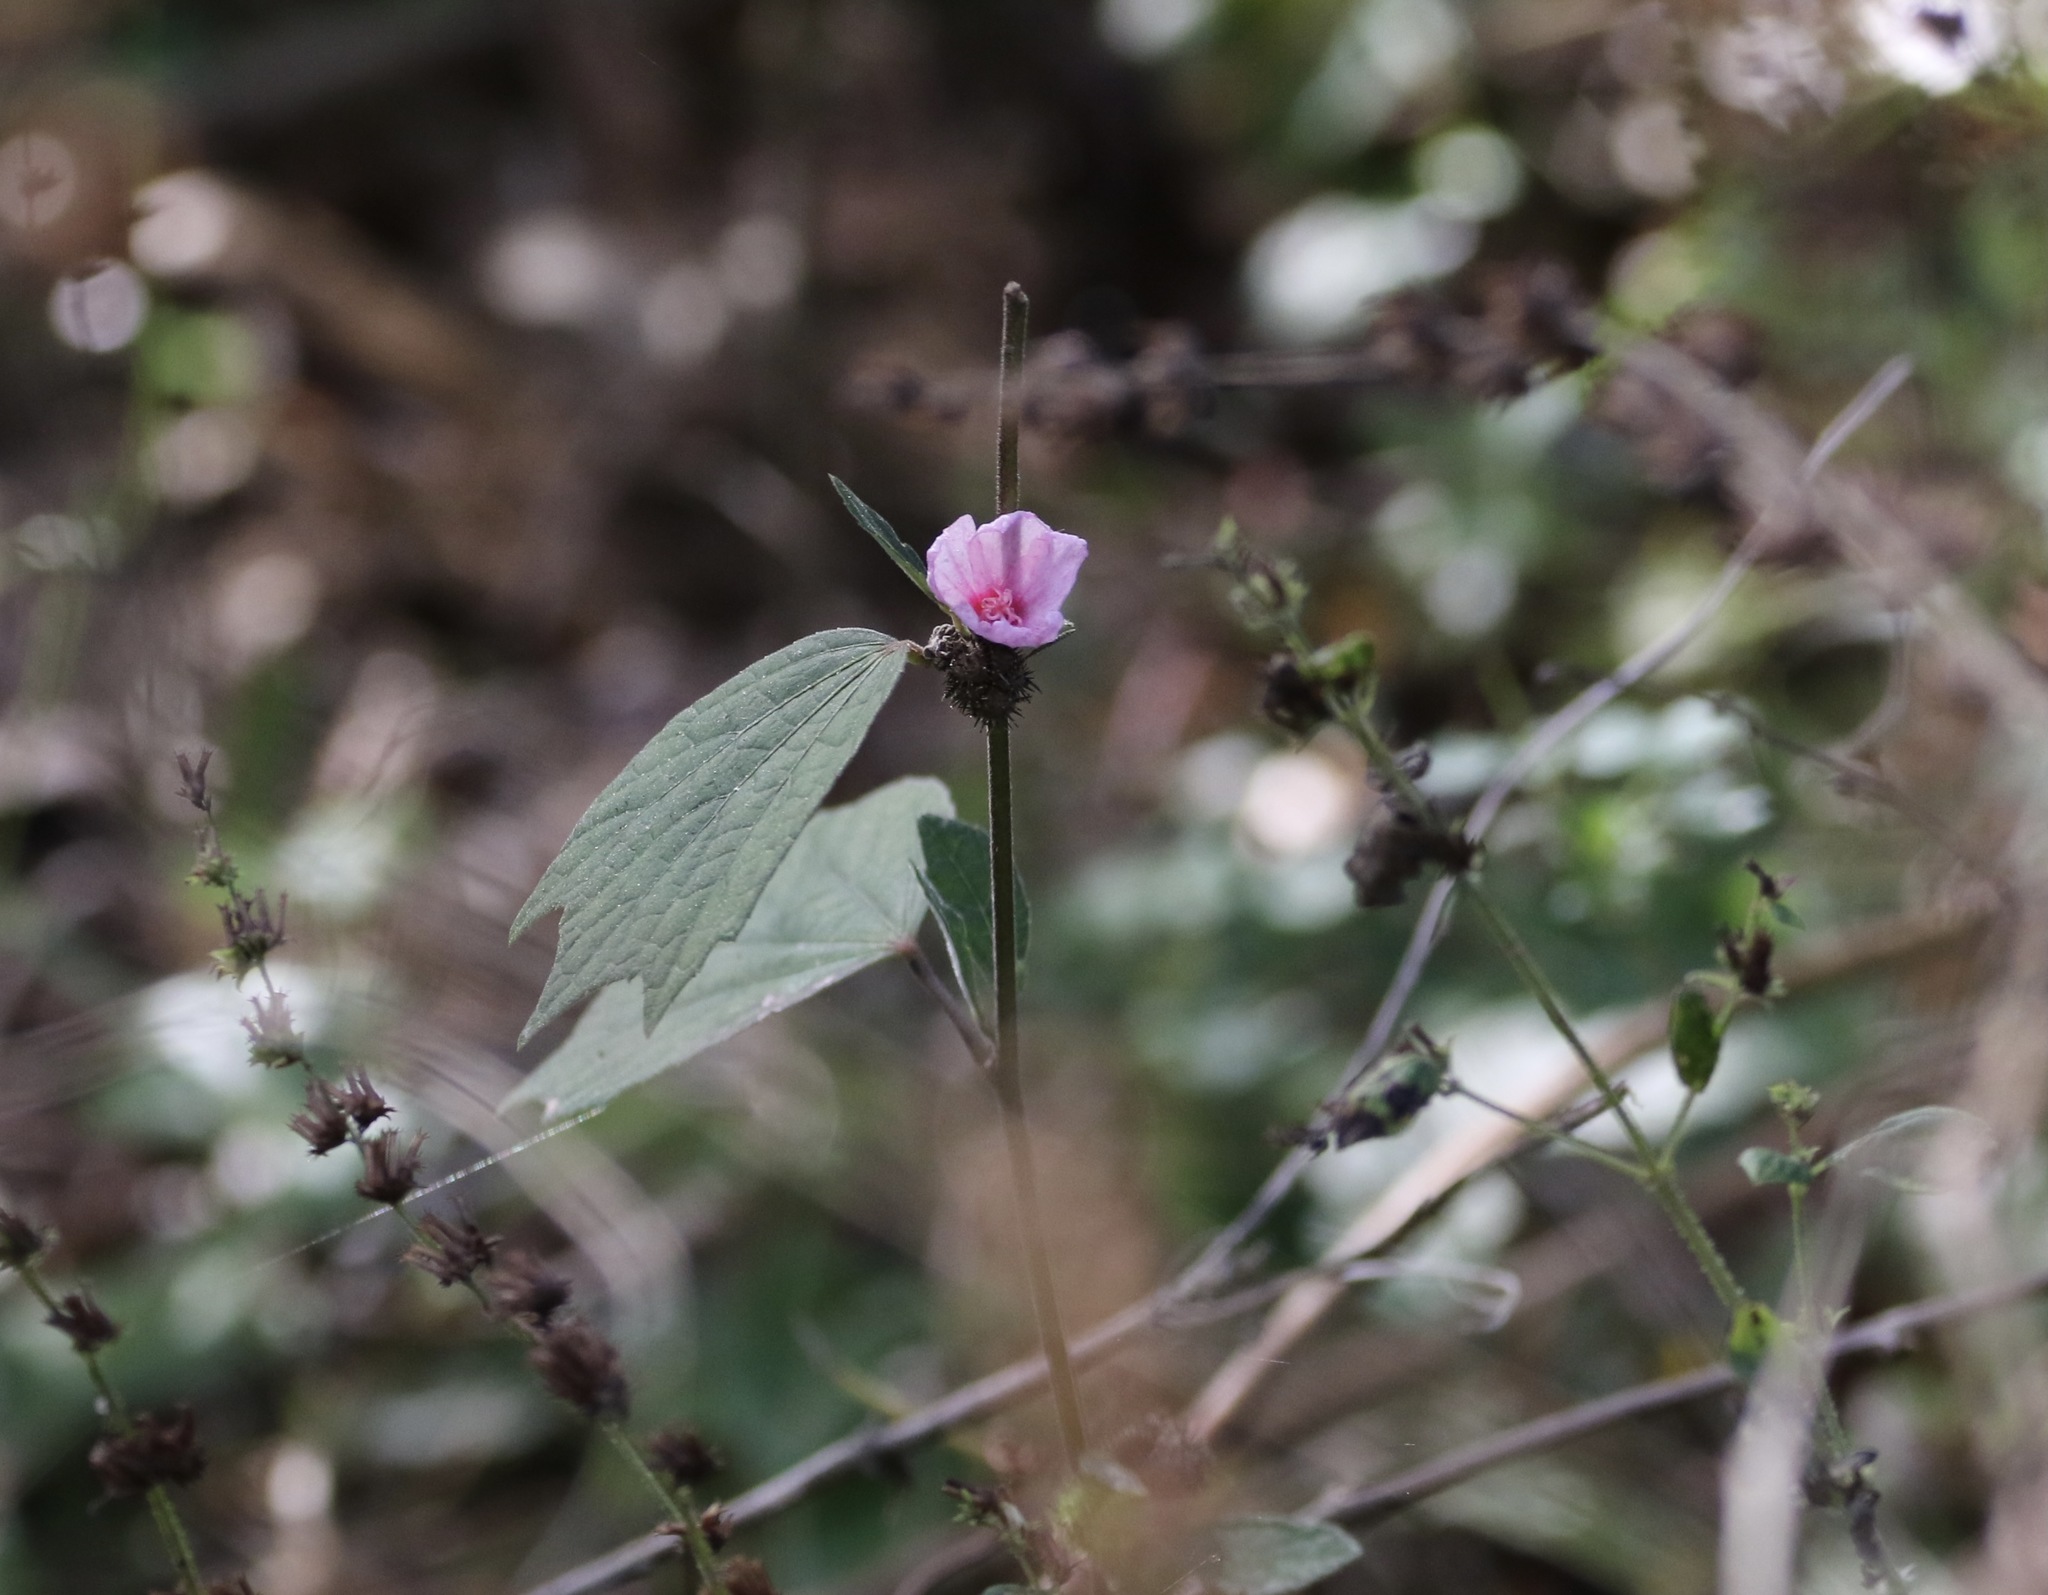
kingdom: Plantae
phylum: Tracheophyta
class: Magnoliopsida
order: Malvales
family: Malvaceae
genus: Urena
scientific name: Urena lobata
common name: Caesarweed
